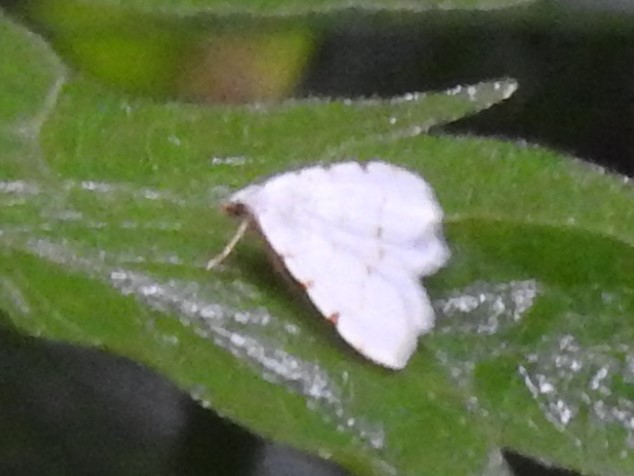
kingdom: Animalia
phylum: Arthropoda
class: Insecta
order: Lepidoptera
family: Geometridae
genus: Macaria
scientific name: Macaria pustularia
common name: Lesser maple spanworm moth
